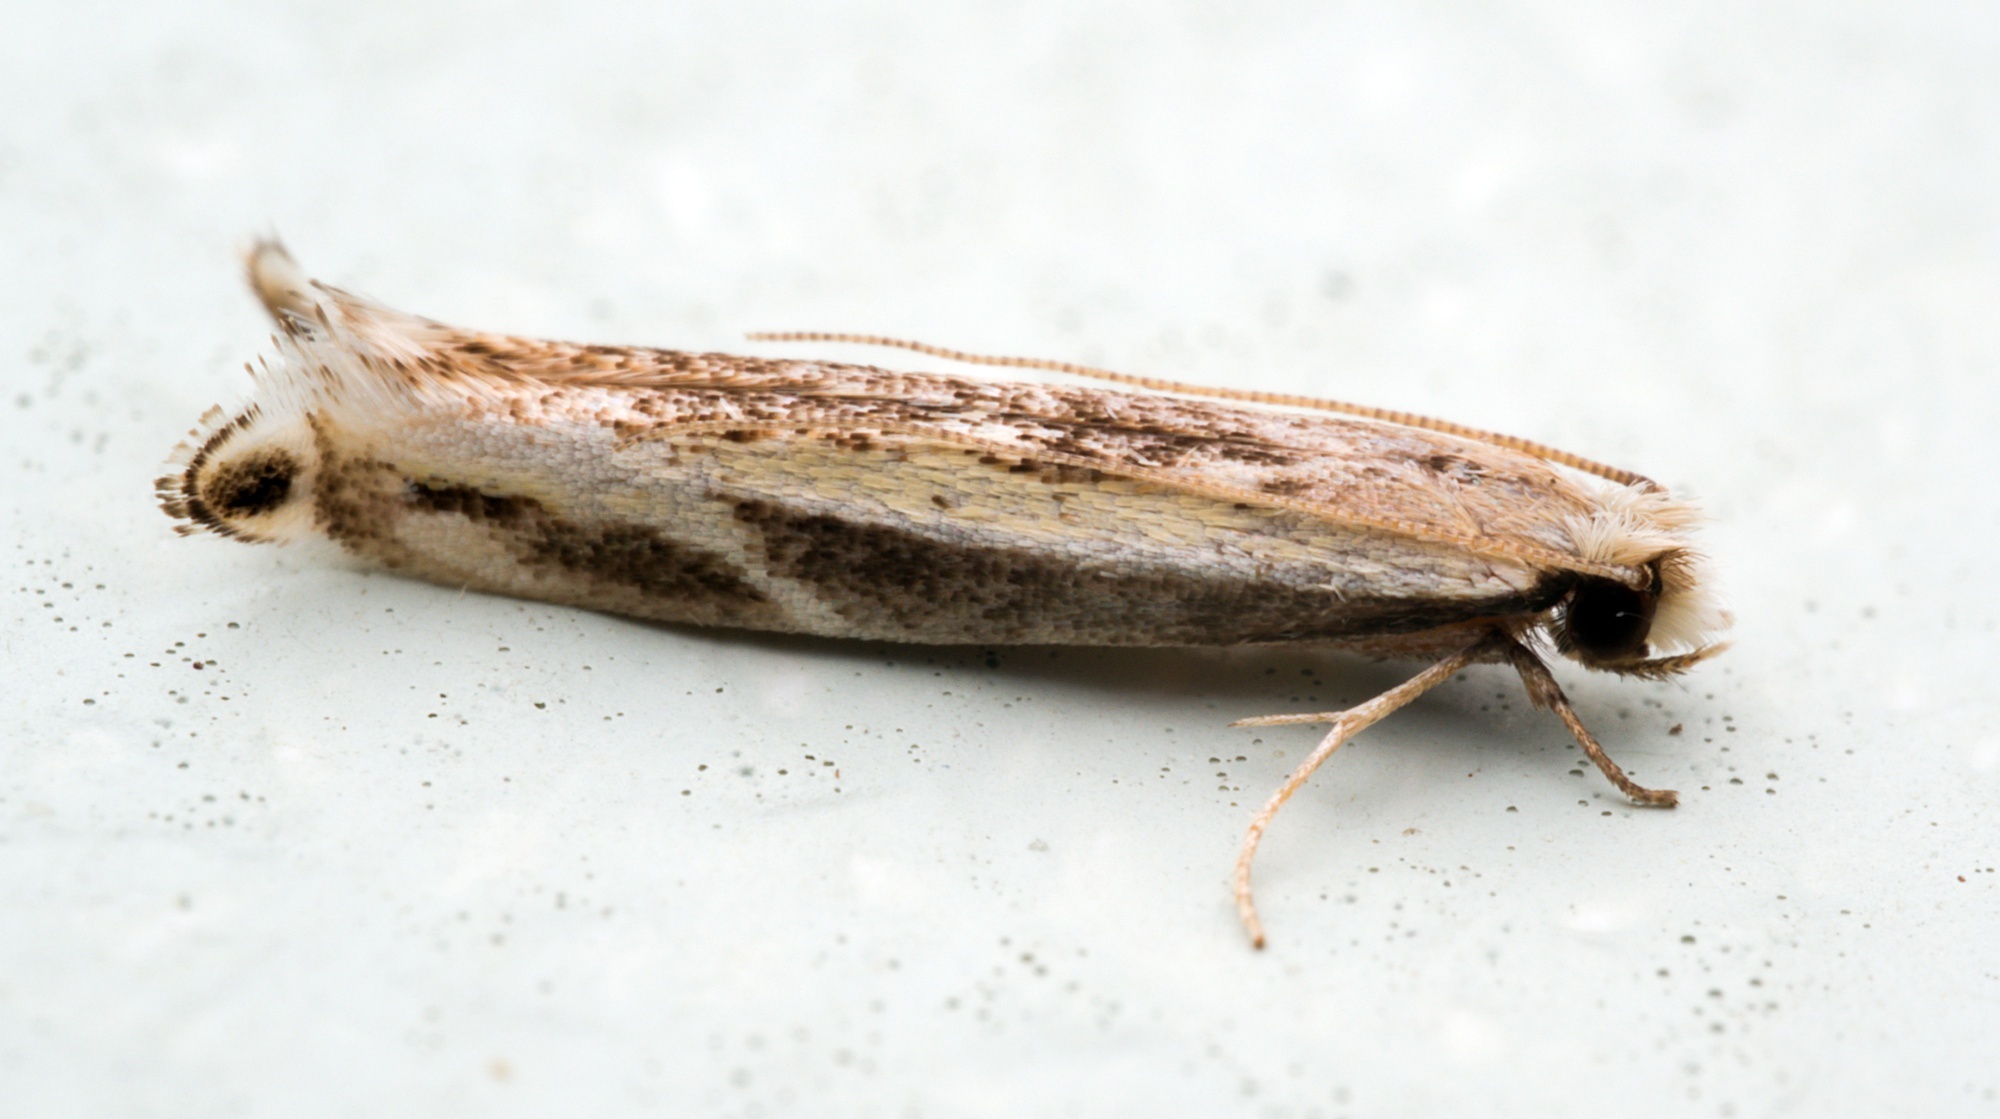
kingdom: Animalia
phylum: Arthropoda
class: Insecta
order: Lepidoptera
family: Tineidae
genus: Erechthias
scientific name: Erechthias terminella
